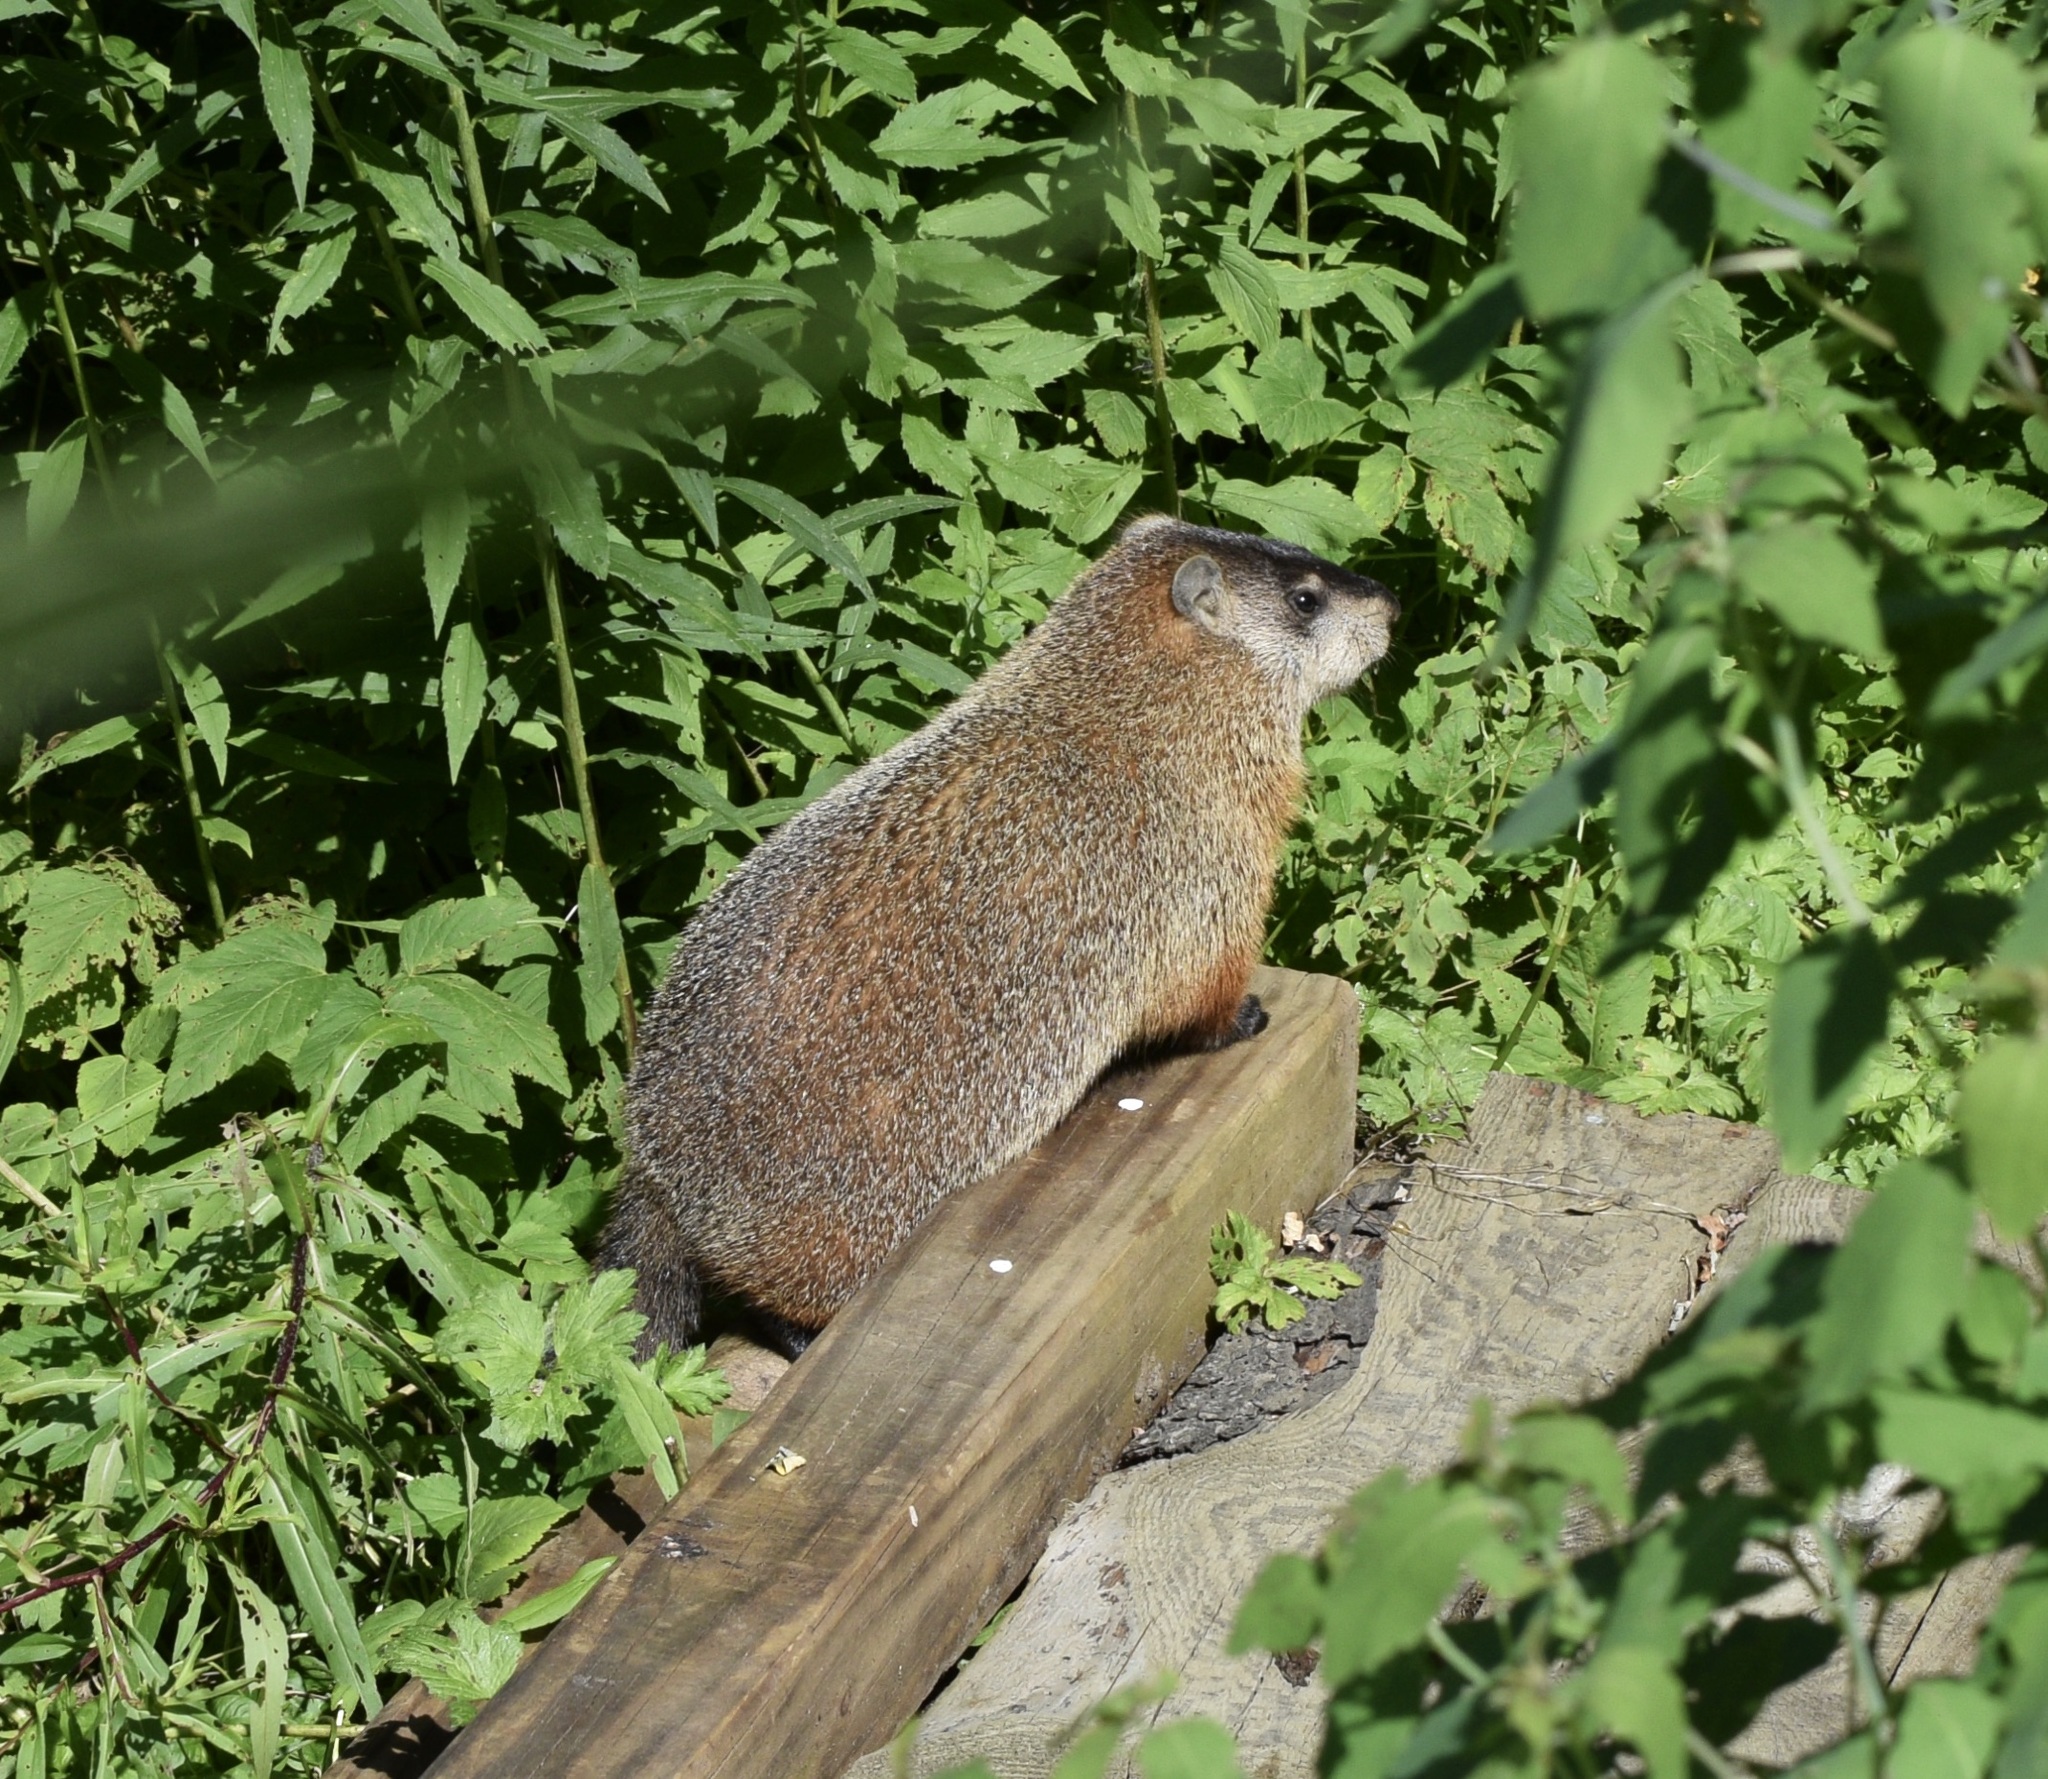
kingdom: Animalia
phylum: Chordata
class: Mammalia
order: Rodentia
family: Sciuridae
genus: Marmota
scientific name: Marmota monax
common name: Groundhog
